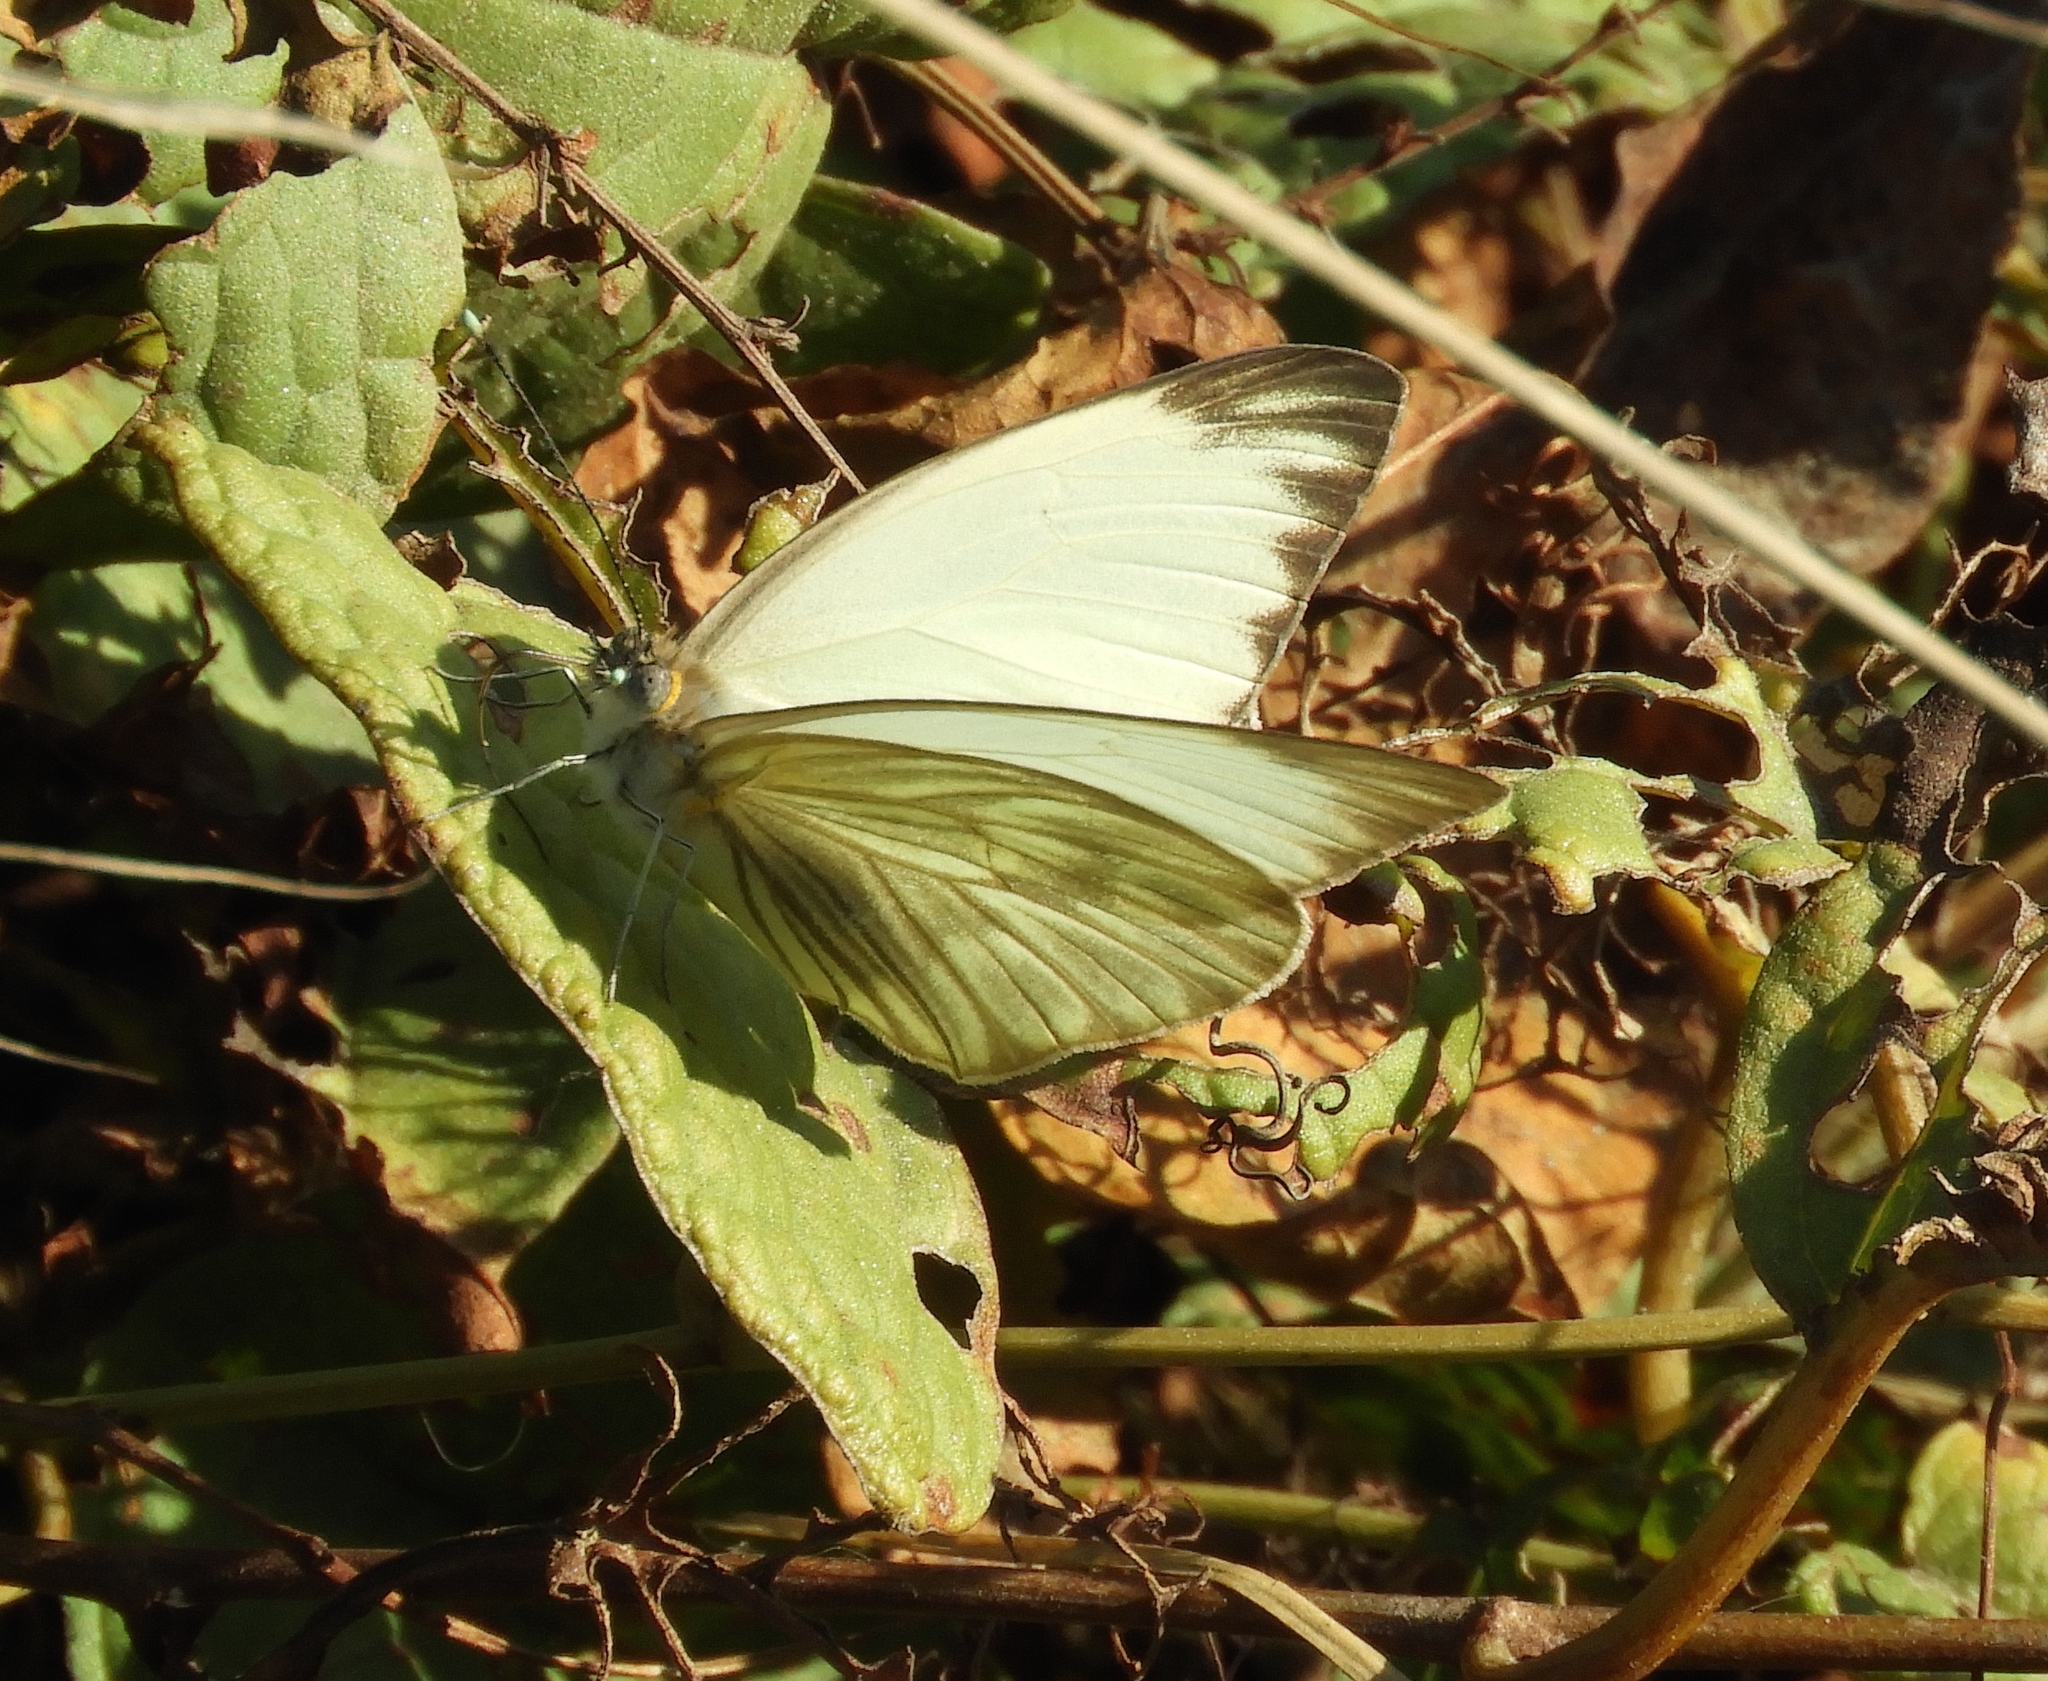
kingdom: Animalia
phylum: Arthropoda
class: Insecta
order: Lepidoptera
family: Pieridae
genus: Ascia
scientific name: Ascia monuste
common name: Great southern white
